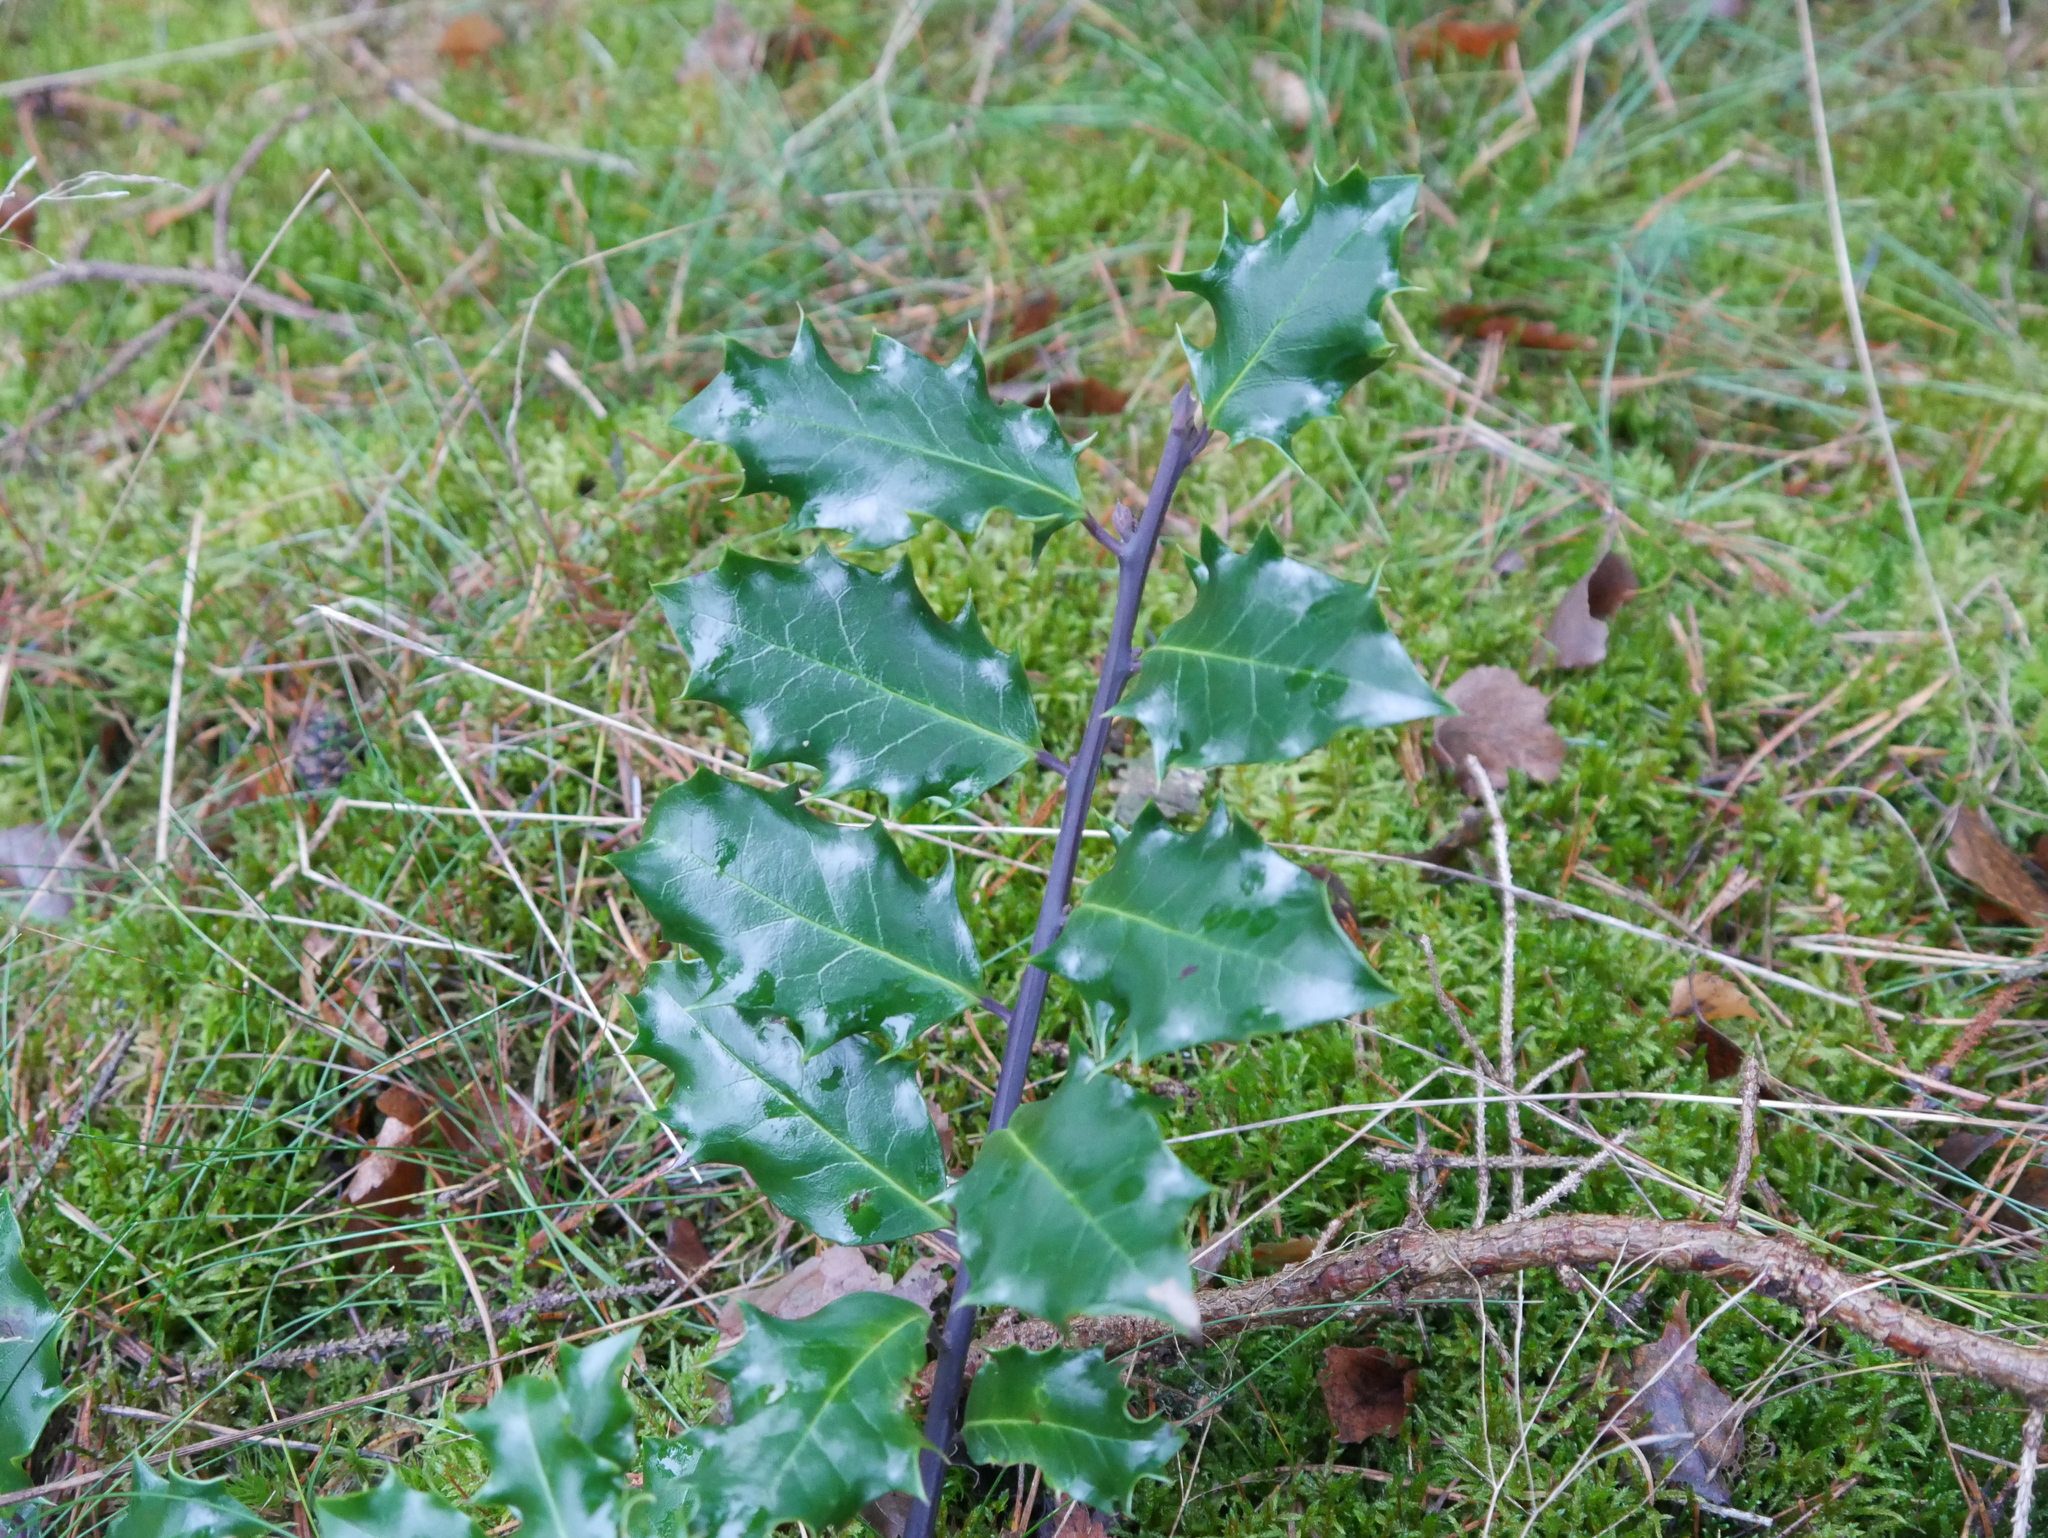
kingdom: Plantae
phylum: Tracheophyta
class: Magnoliopsida
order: Aquifoliales
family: Aquifoliaceae
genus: Ilex
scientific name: Ilex aquifolium
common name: English holly
